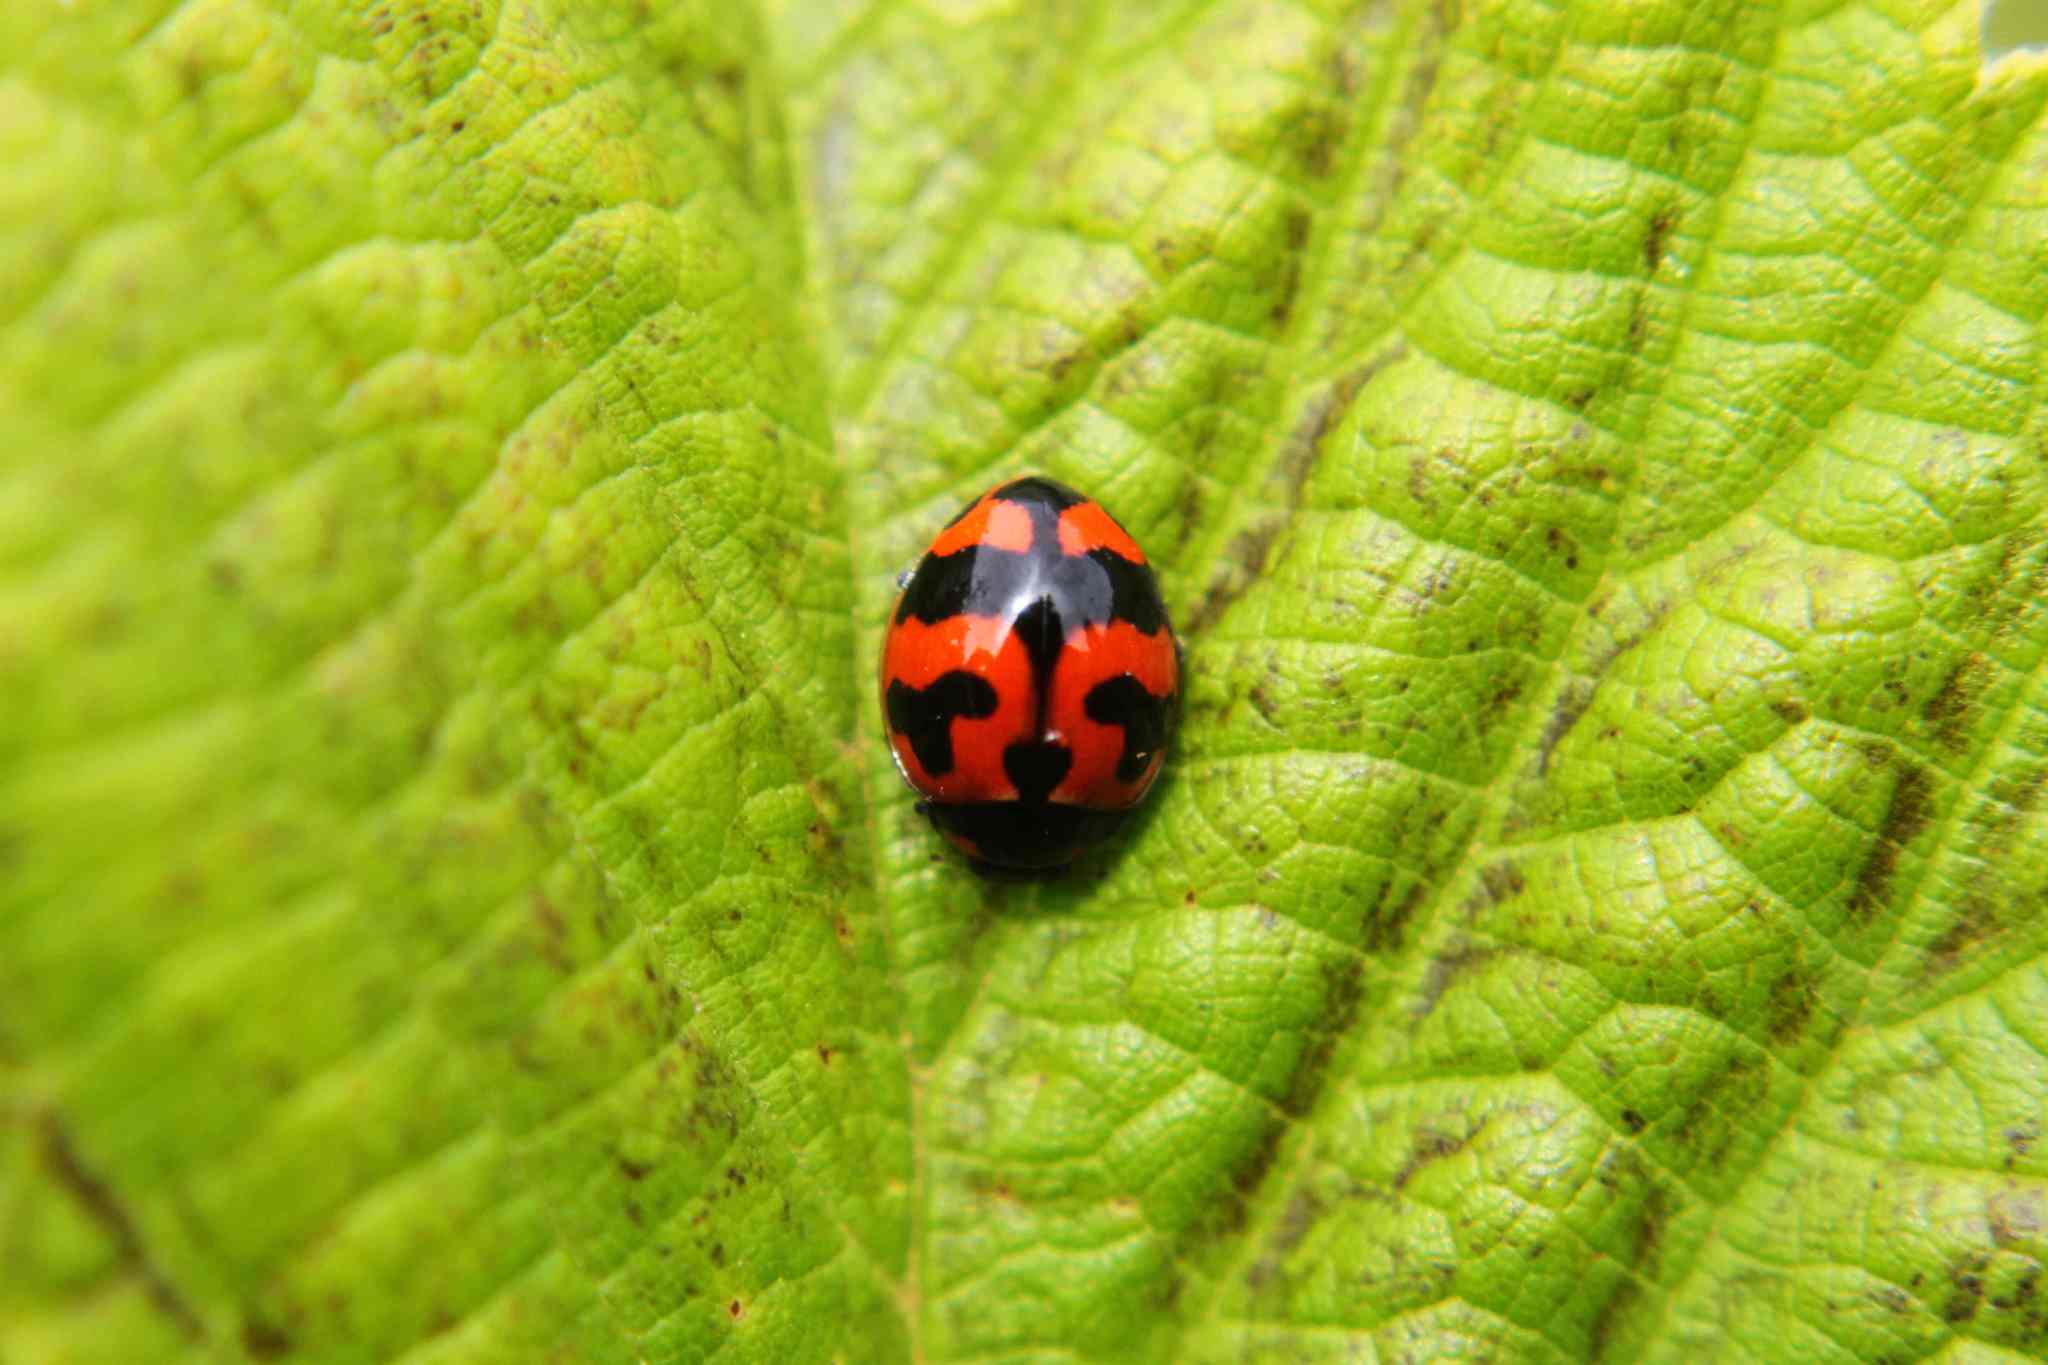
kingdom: Animalia
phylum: Arthropoda
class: Insecta
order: Coleoptera
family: Coccinellidae
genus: Coccinella
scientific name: Coccinella transversalis
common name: Transverse lady beetle
